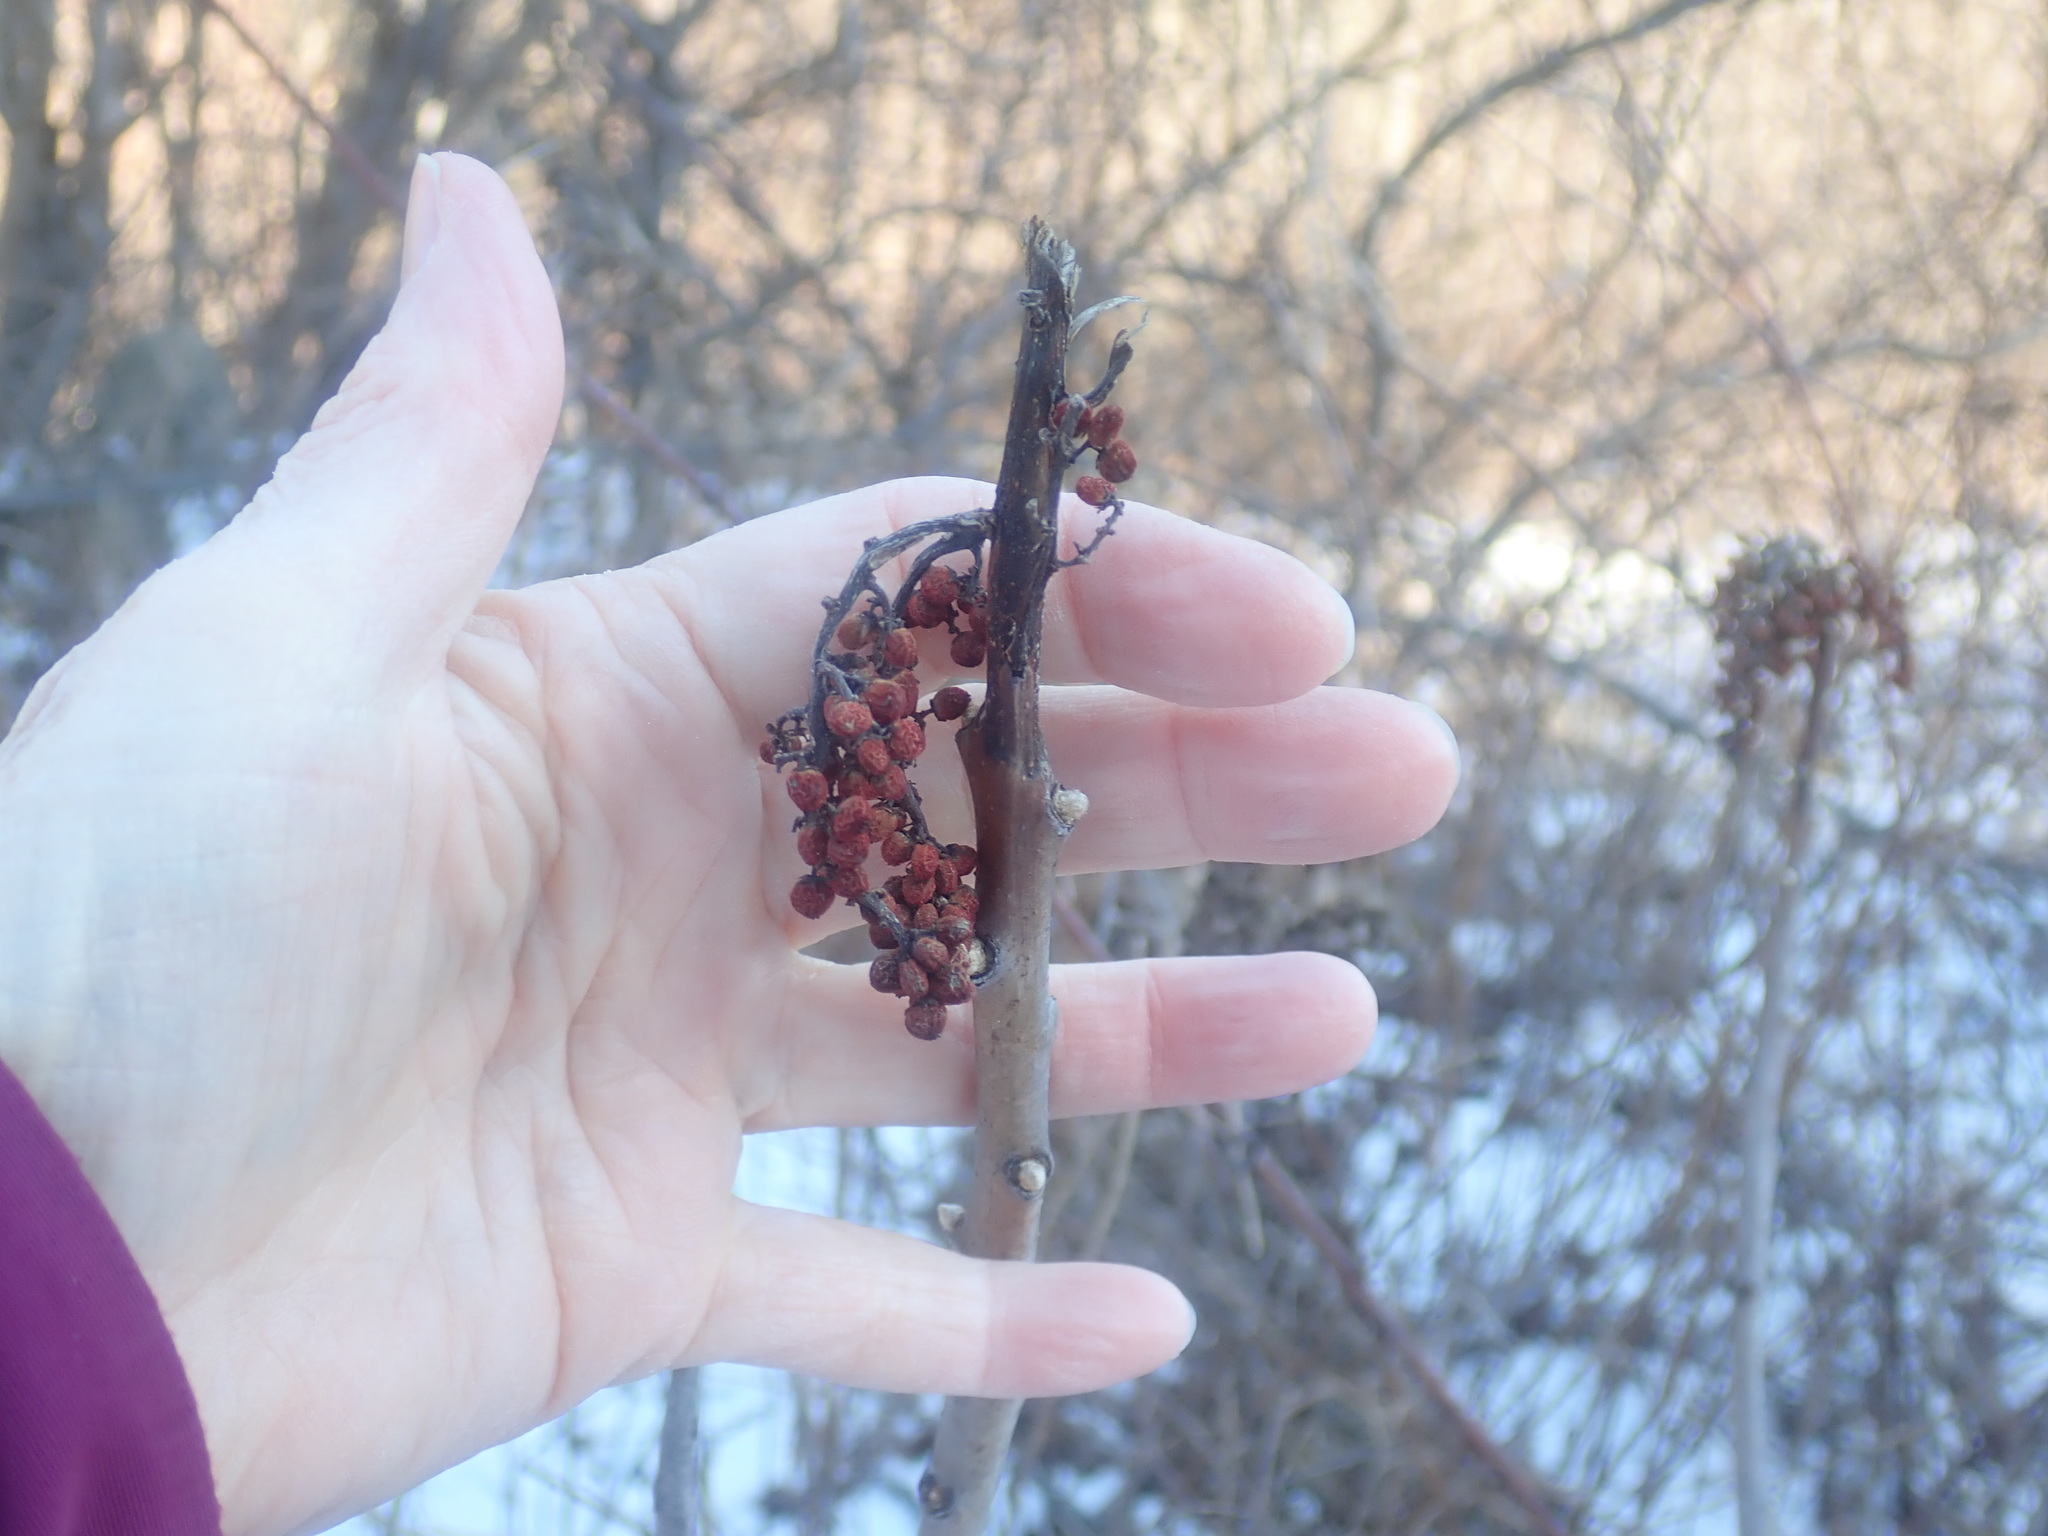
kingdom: Plantae
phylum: Tracheophyta
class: Magnoliopsida
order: Sapindales
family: Anacardiaceae
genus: Rhus
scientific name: Rhus glabra
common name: Scarlet sumac
